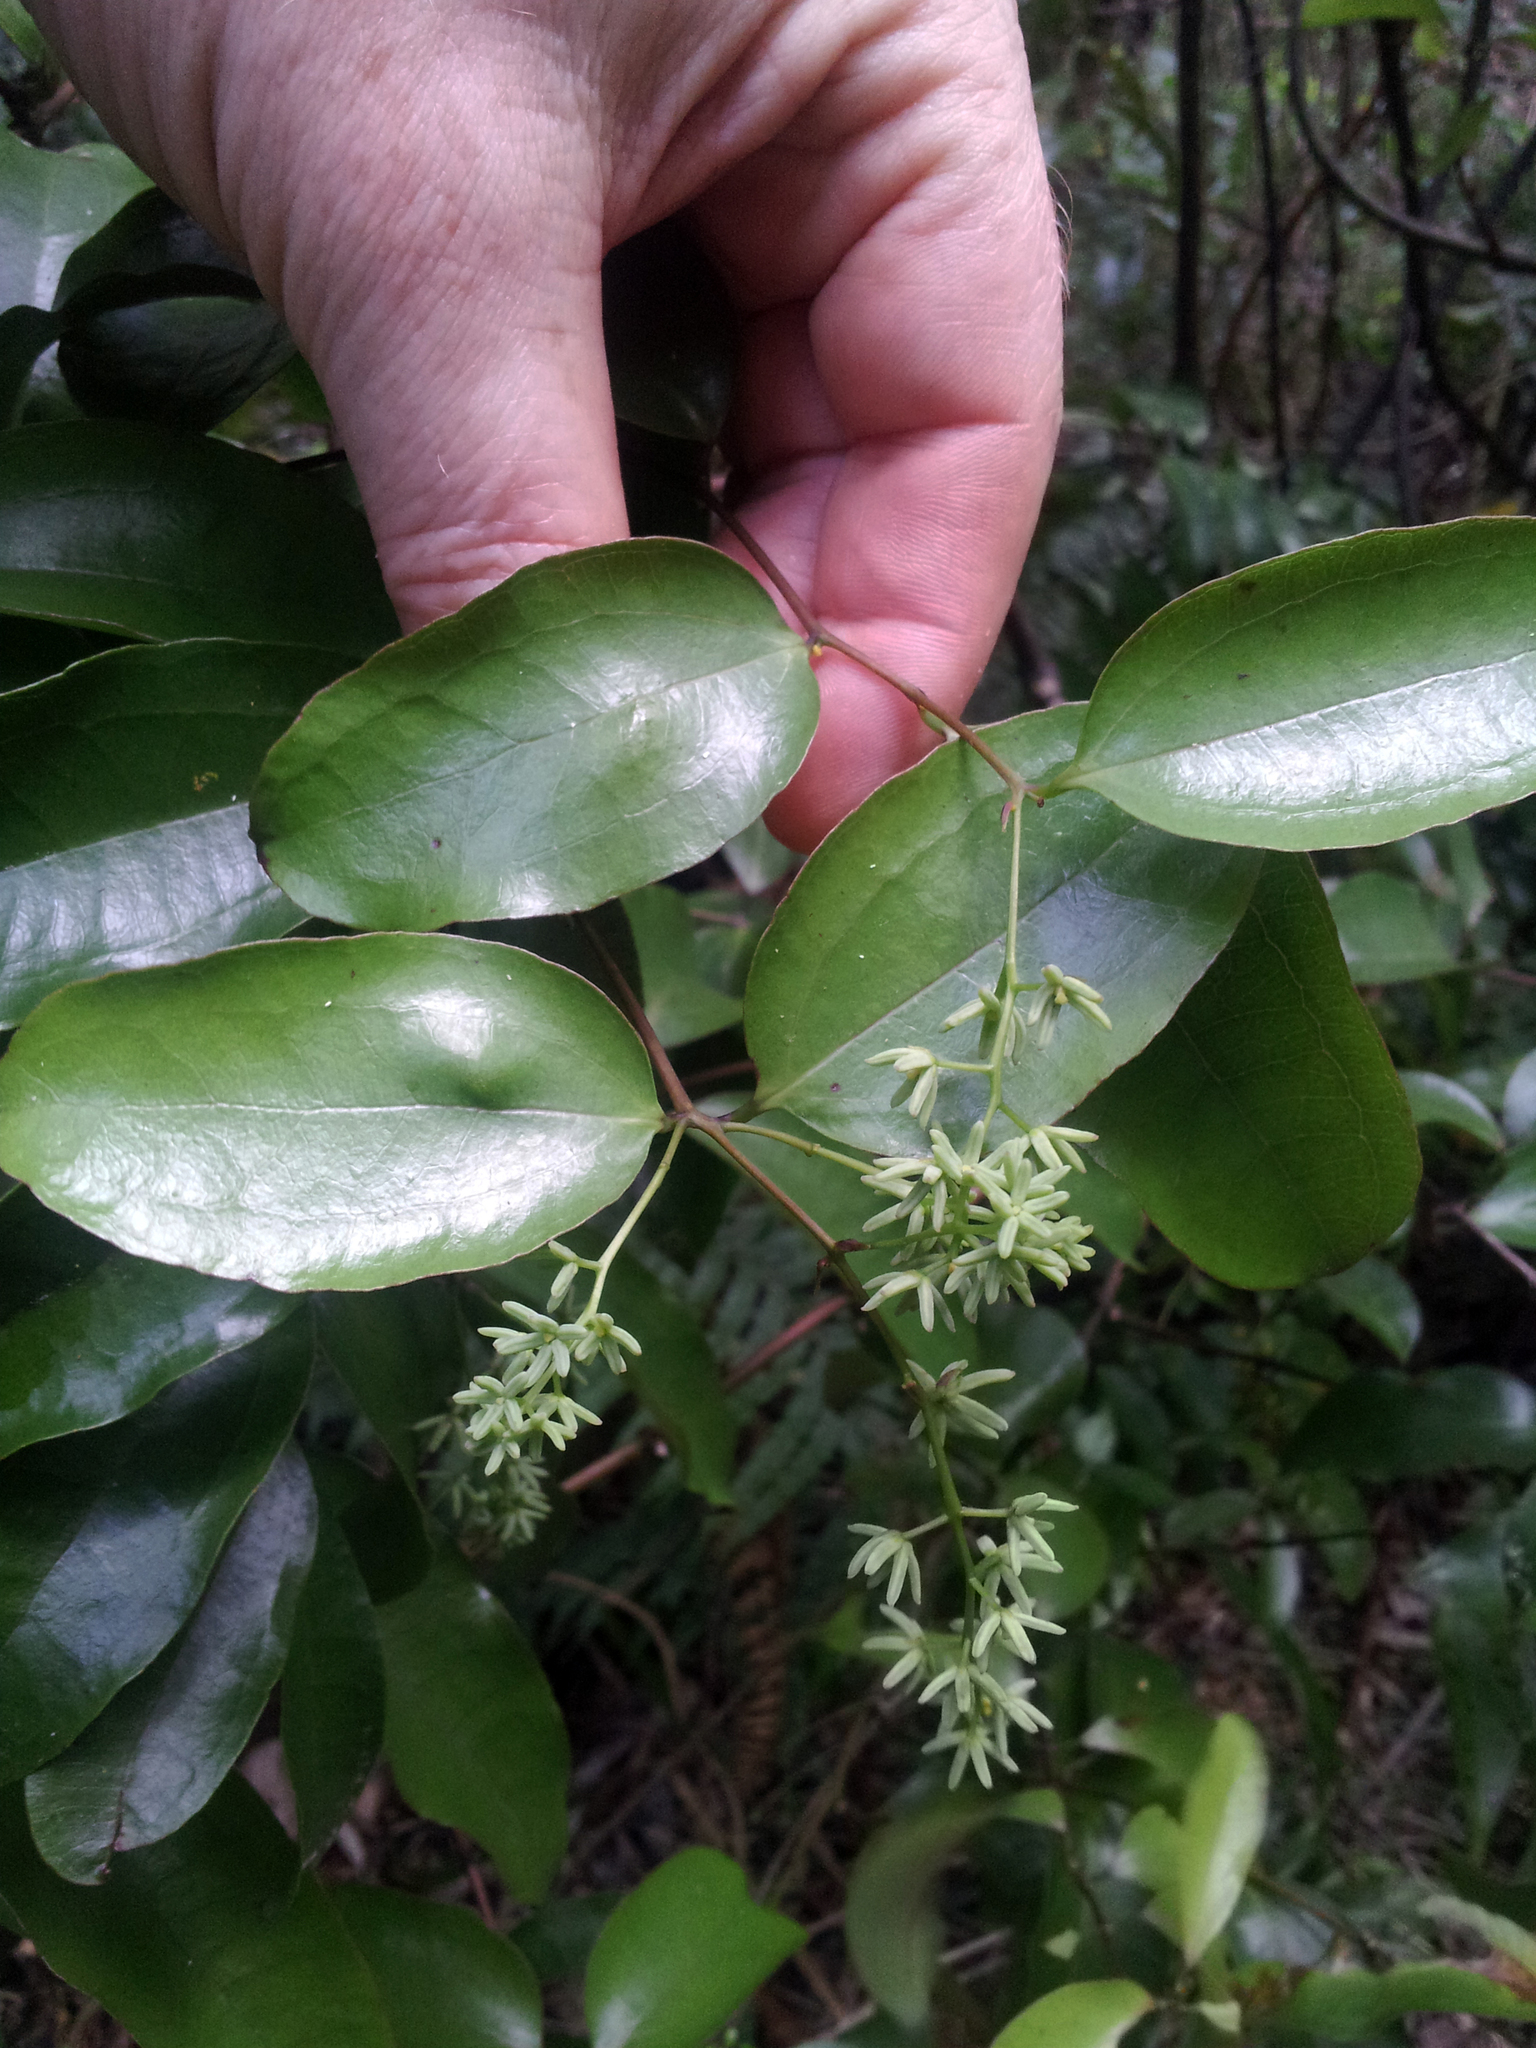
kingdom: Plantae
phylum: Tracheophyta
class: Liliopsida
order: Liliales
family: Ripogonaceae
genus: Ripogonum
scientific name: Ripogonum scandens
